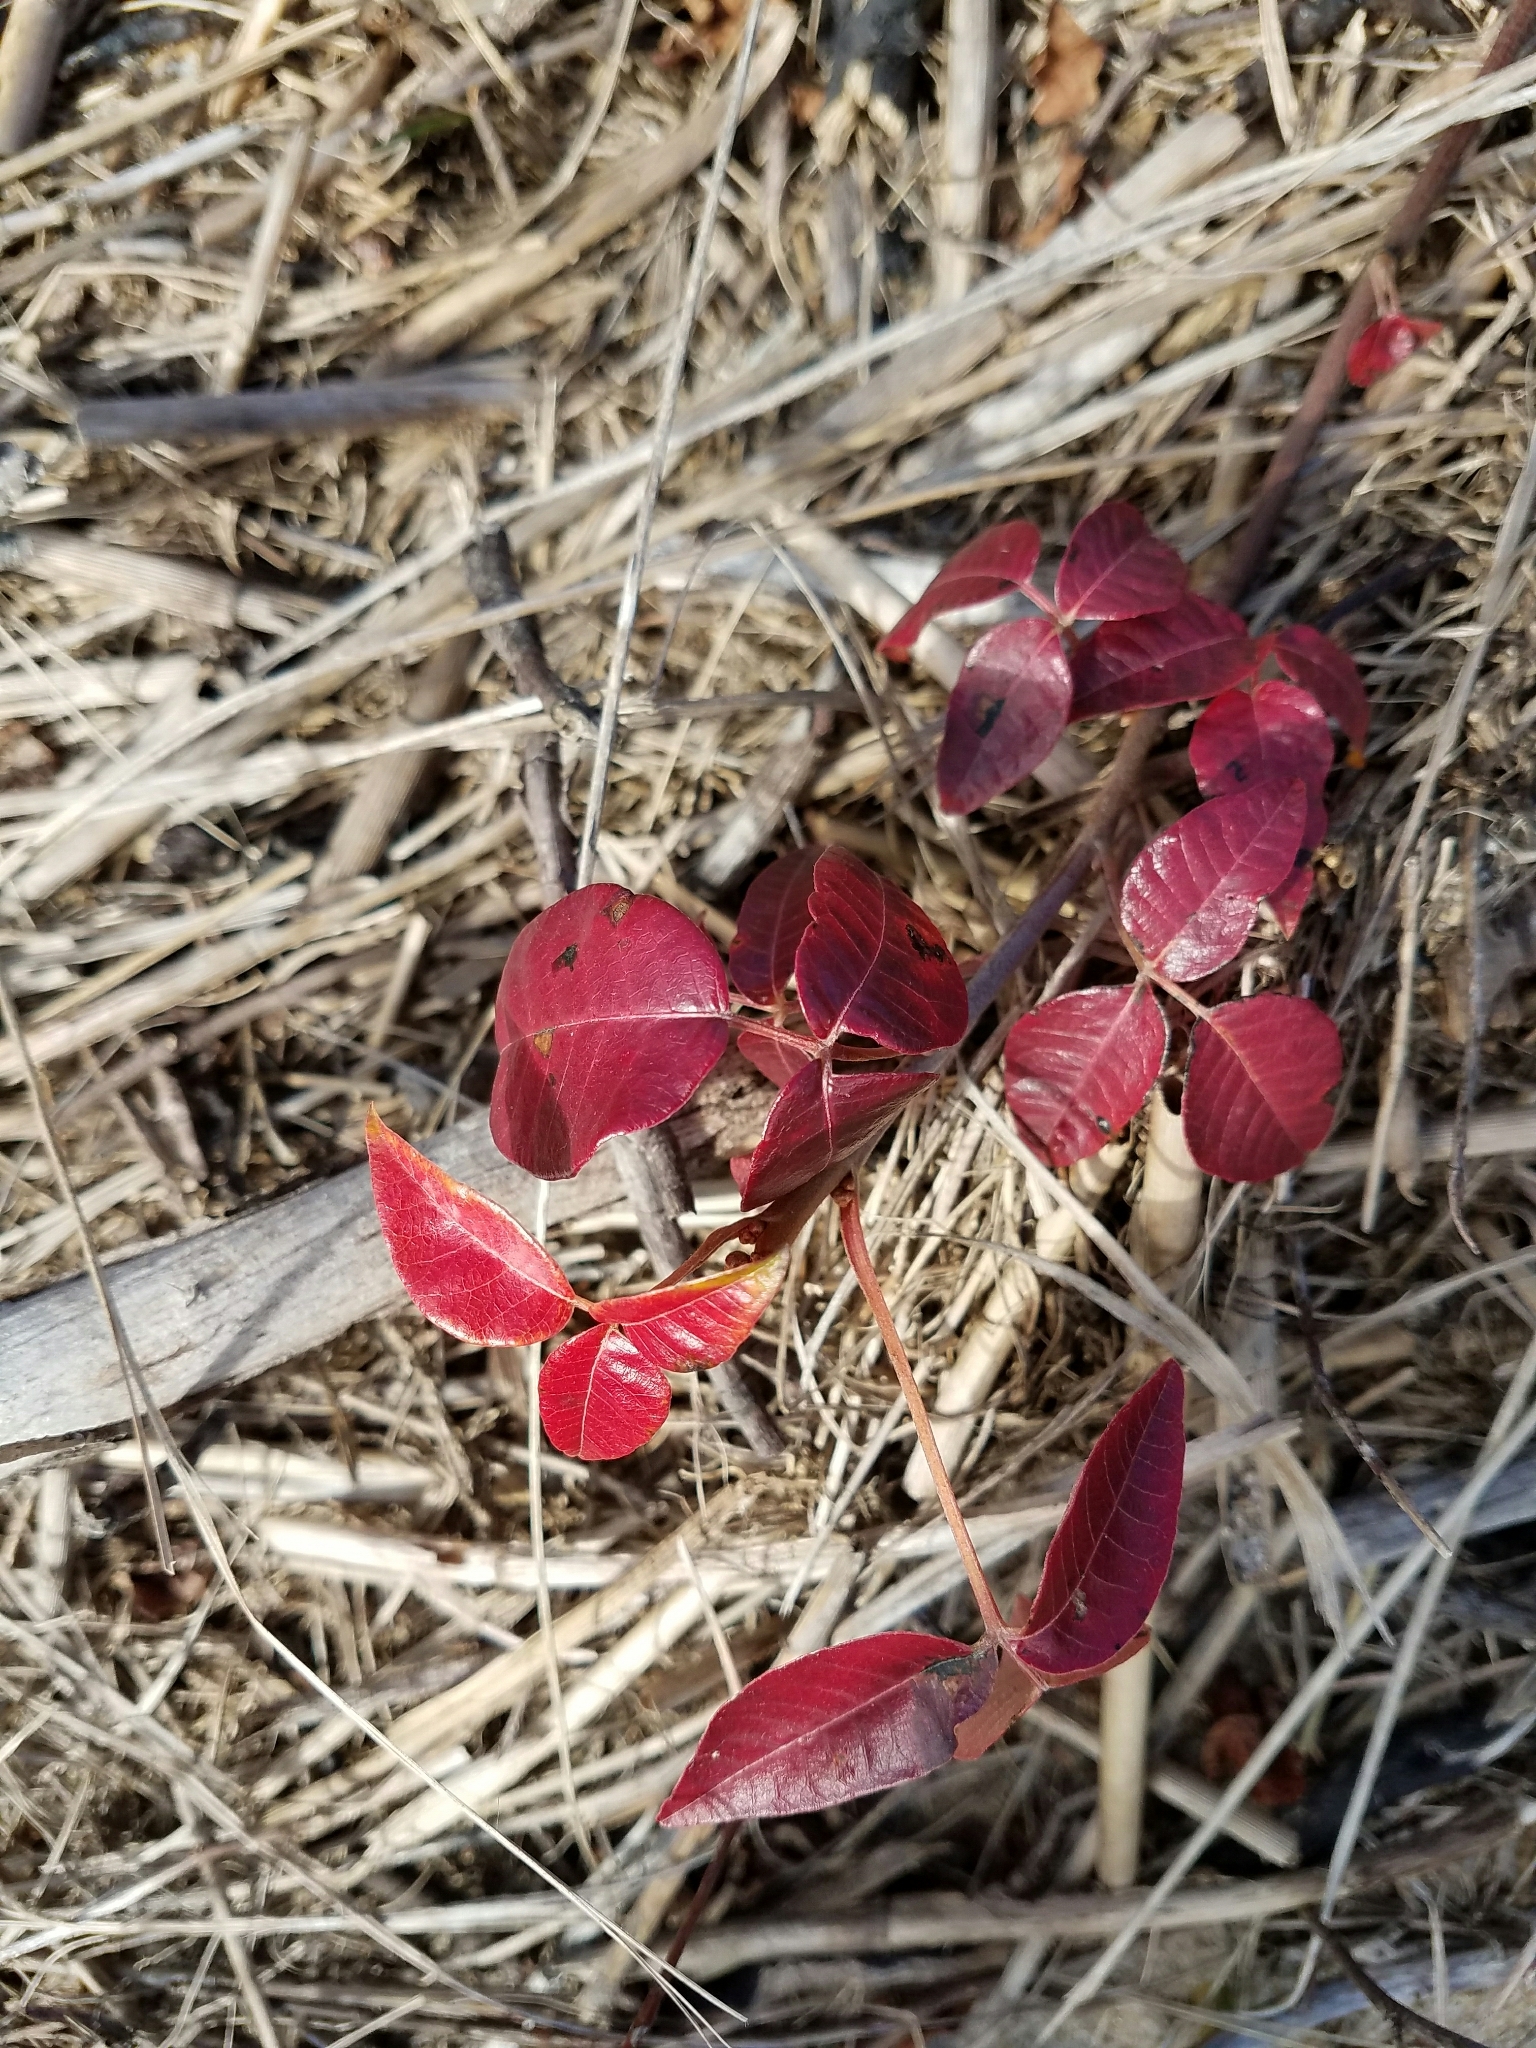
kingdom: Plantae
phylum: Tracheophyta
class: Magnoliopsida
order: Sapindales
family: Anacardiaceae
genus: Toxicodendron
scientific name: Toxicodendron radicans
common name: Poison ivy
